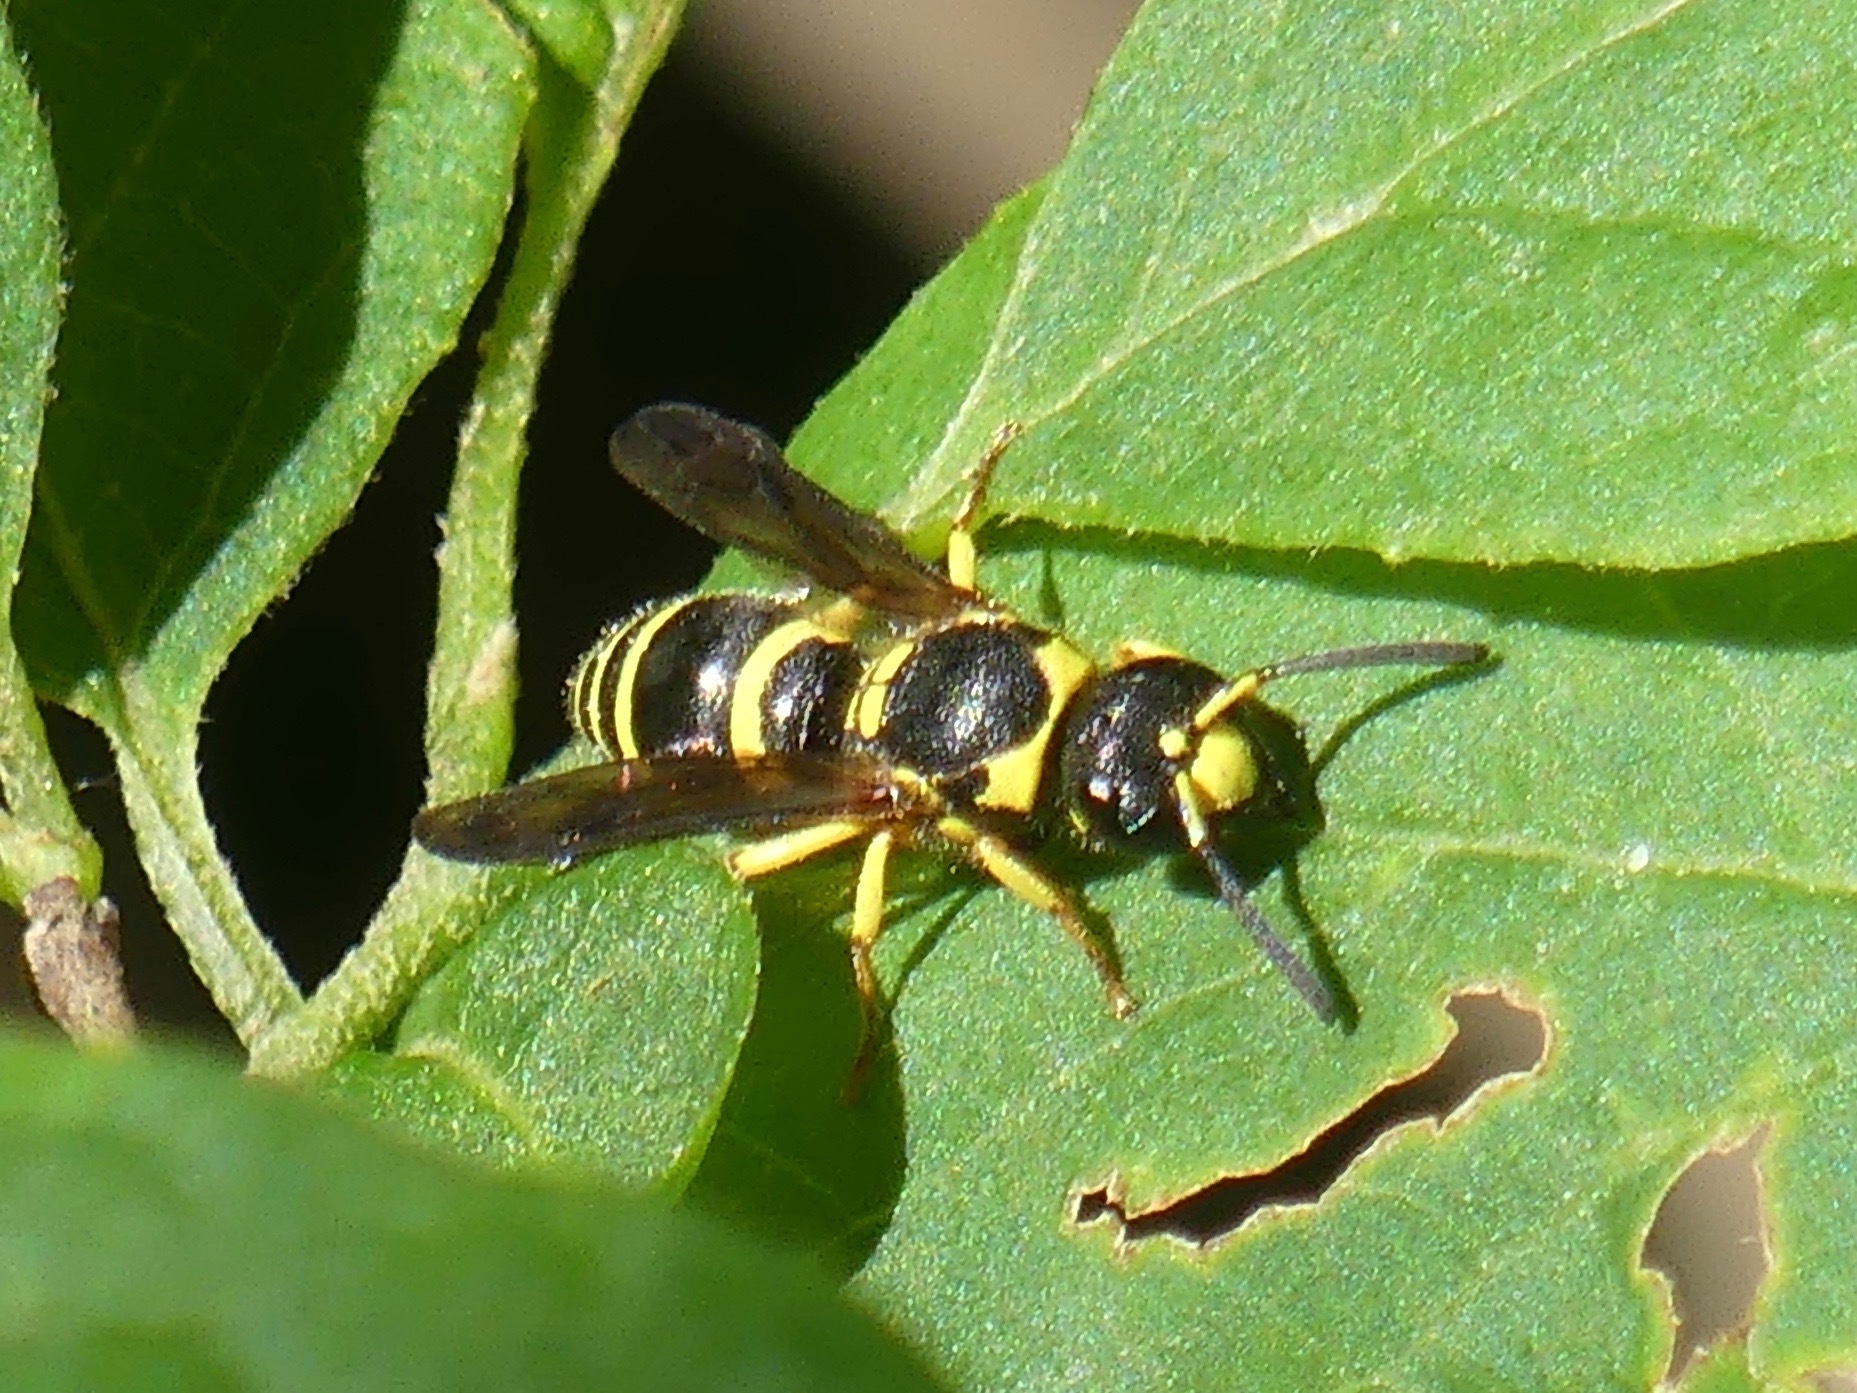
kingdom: Animalia
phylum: Arthropoda
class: Insecta
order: Hymenoptera
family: Vespidae
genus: Ancistrocerus
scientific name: Ancistrocerus
